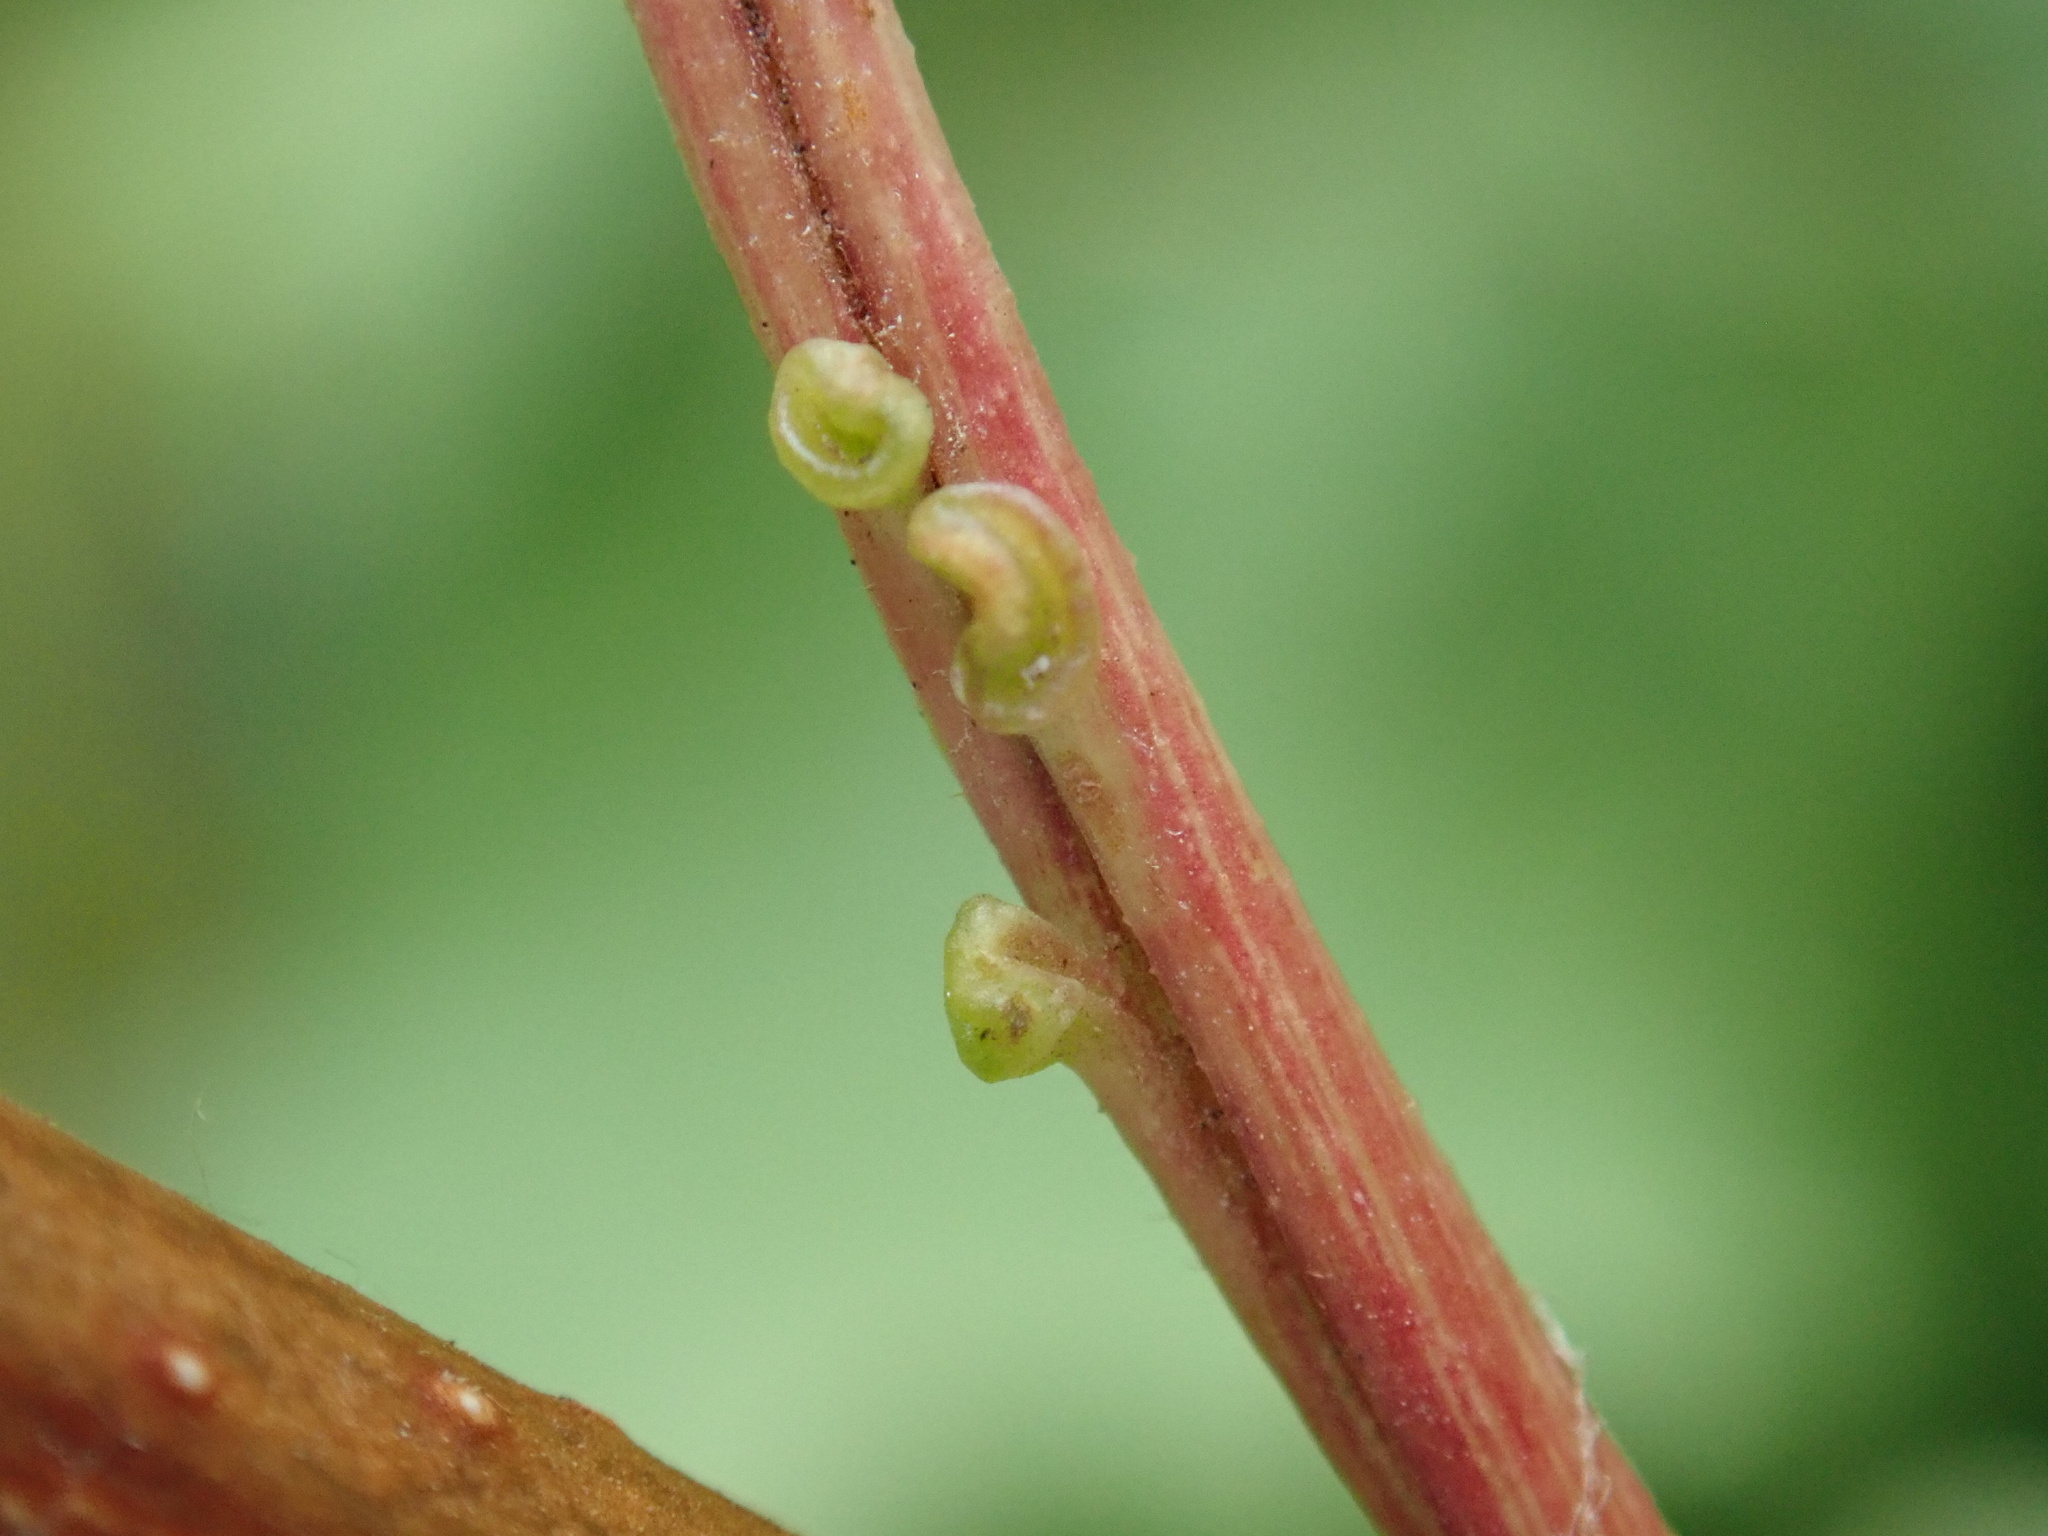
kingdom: Plantae
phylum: Tracheophyta
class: Magnoliopsida
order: Dipsacales
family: Viburnaceae
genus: Viburnum
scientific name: Viburnum opulus
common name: Guelder-rose
